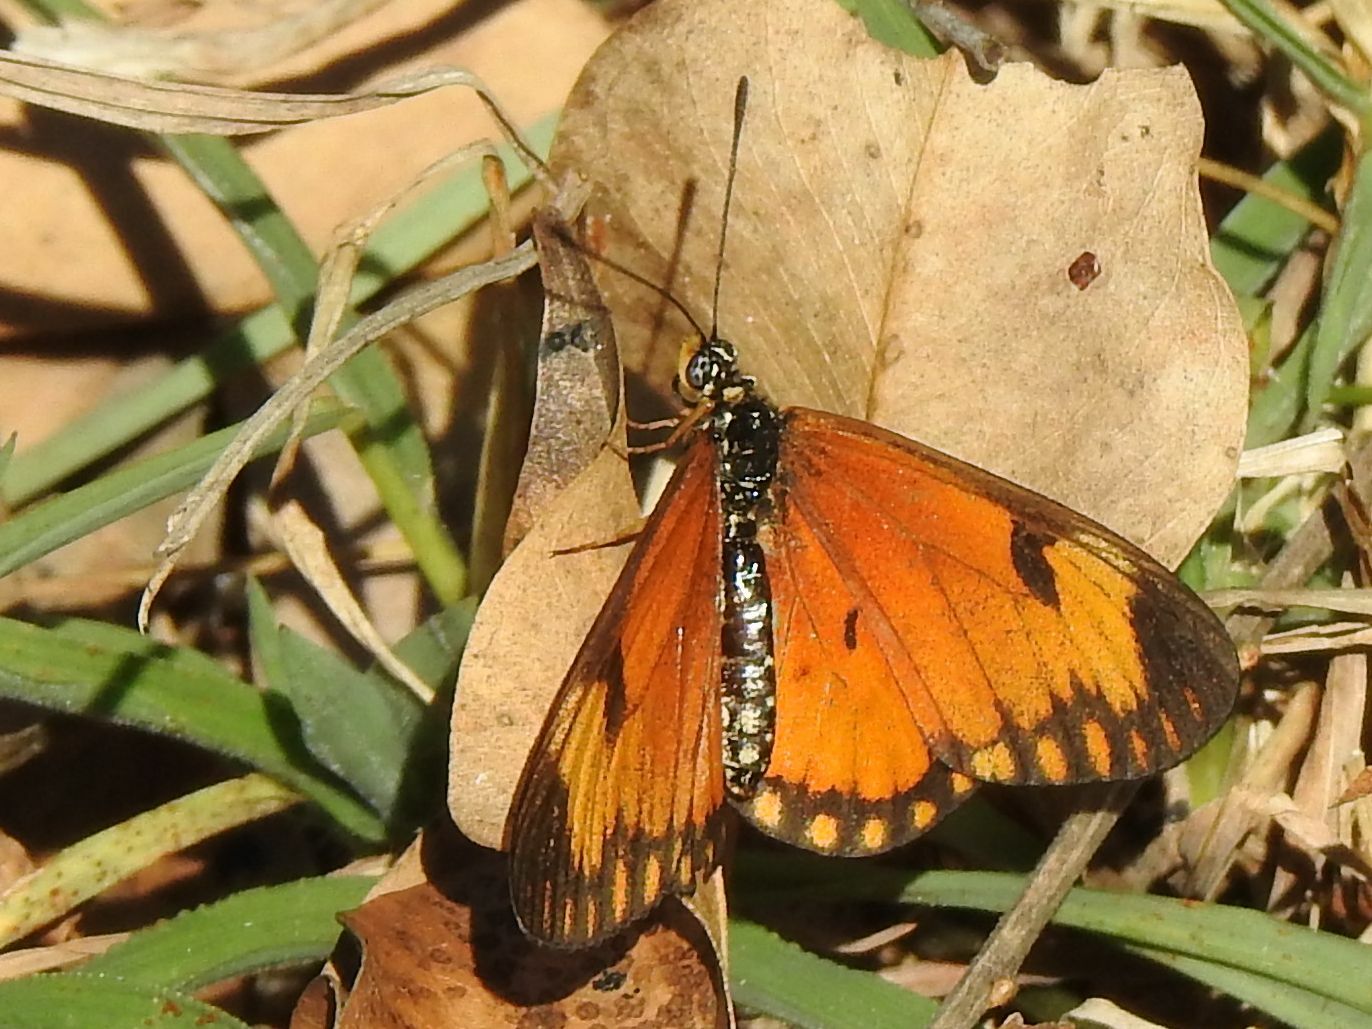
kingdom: Animalia
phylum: Arthropoda
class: Insecta
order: Lepidoptera
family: Nymphalidae
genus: Acraea
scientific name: Acraea Telchinia serena
